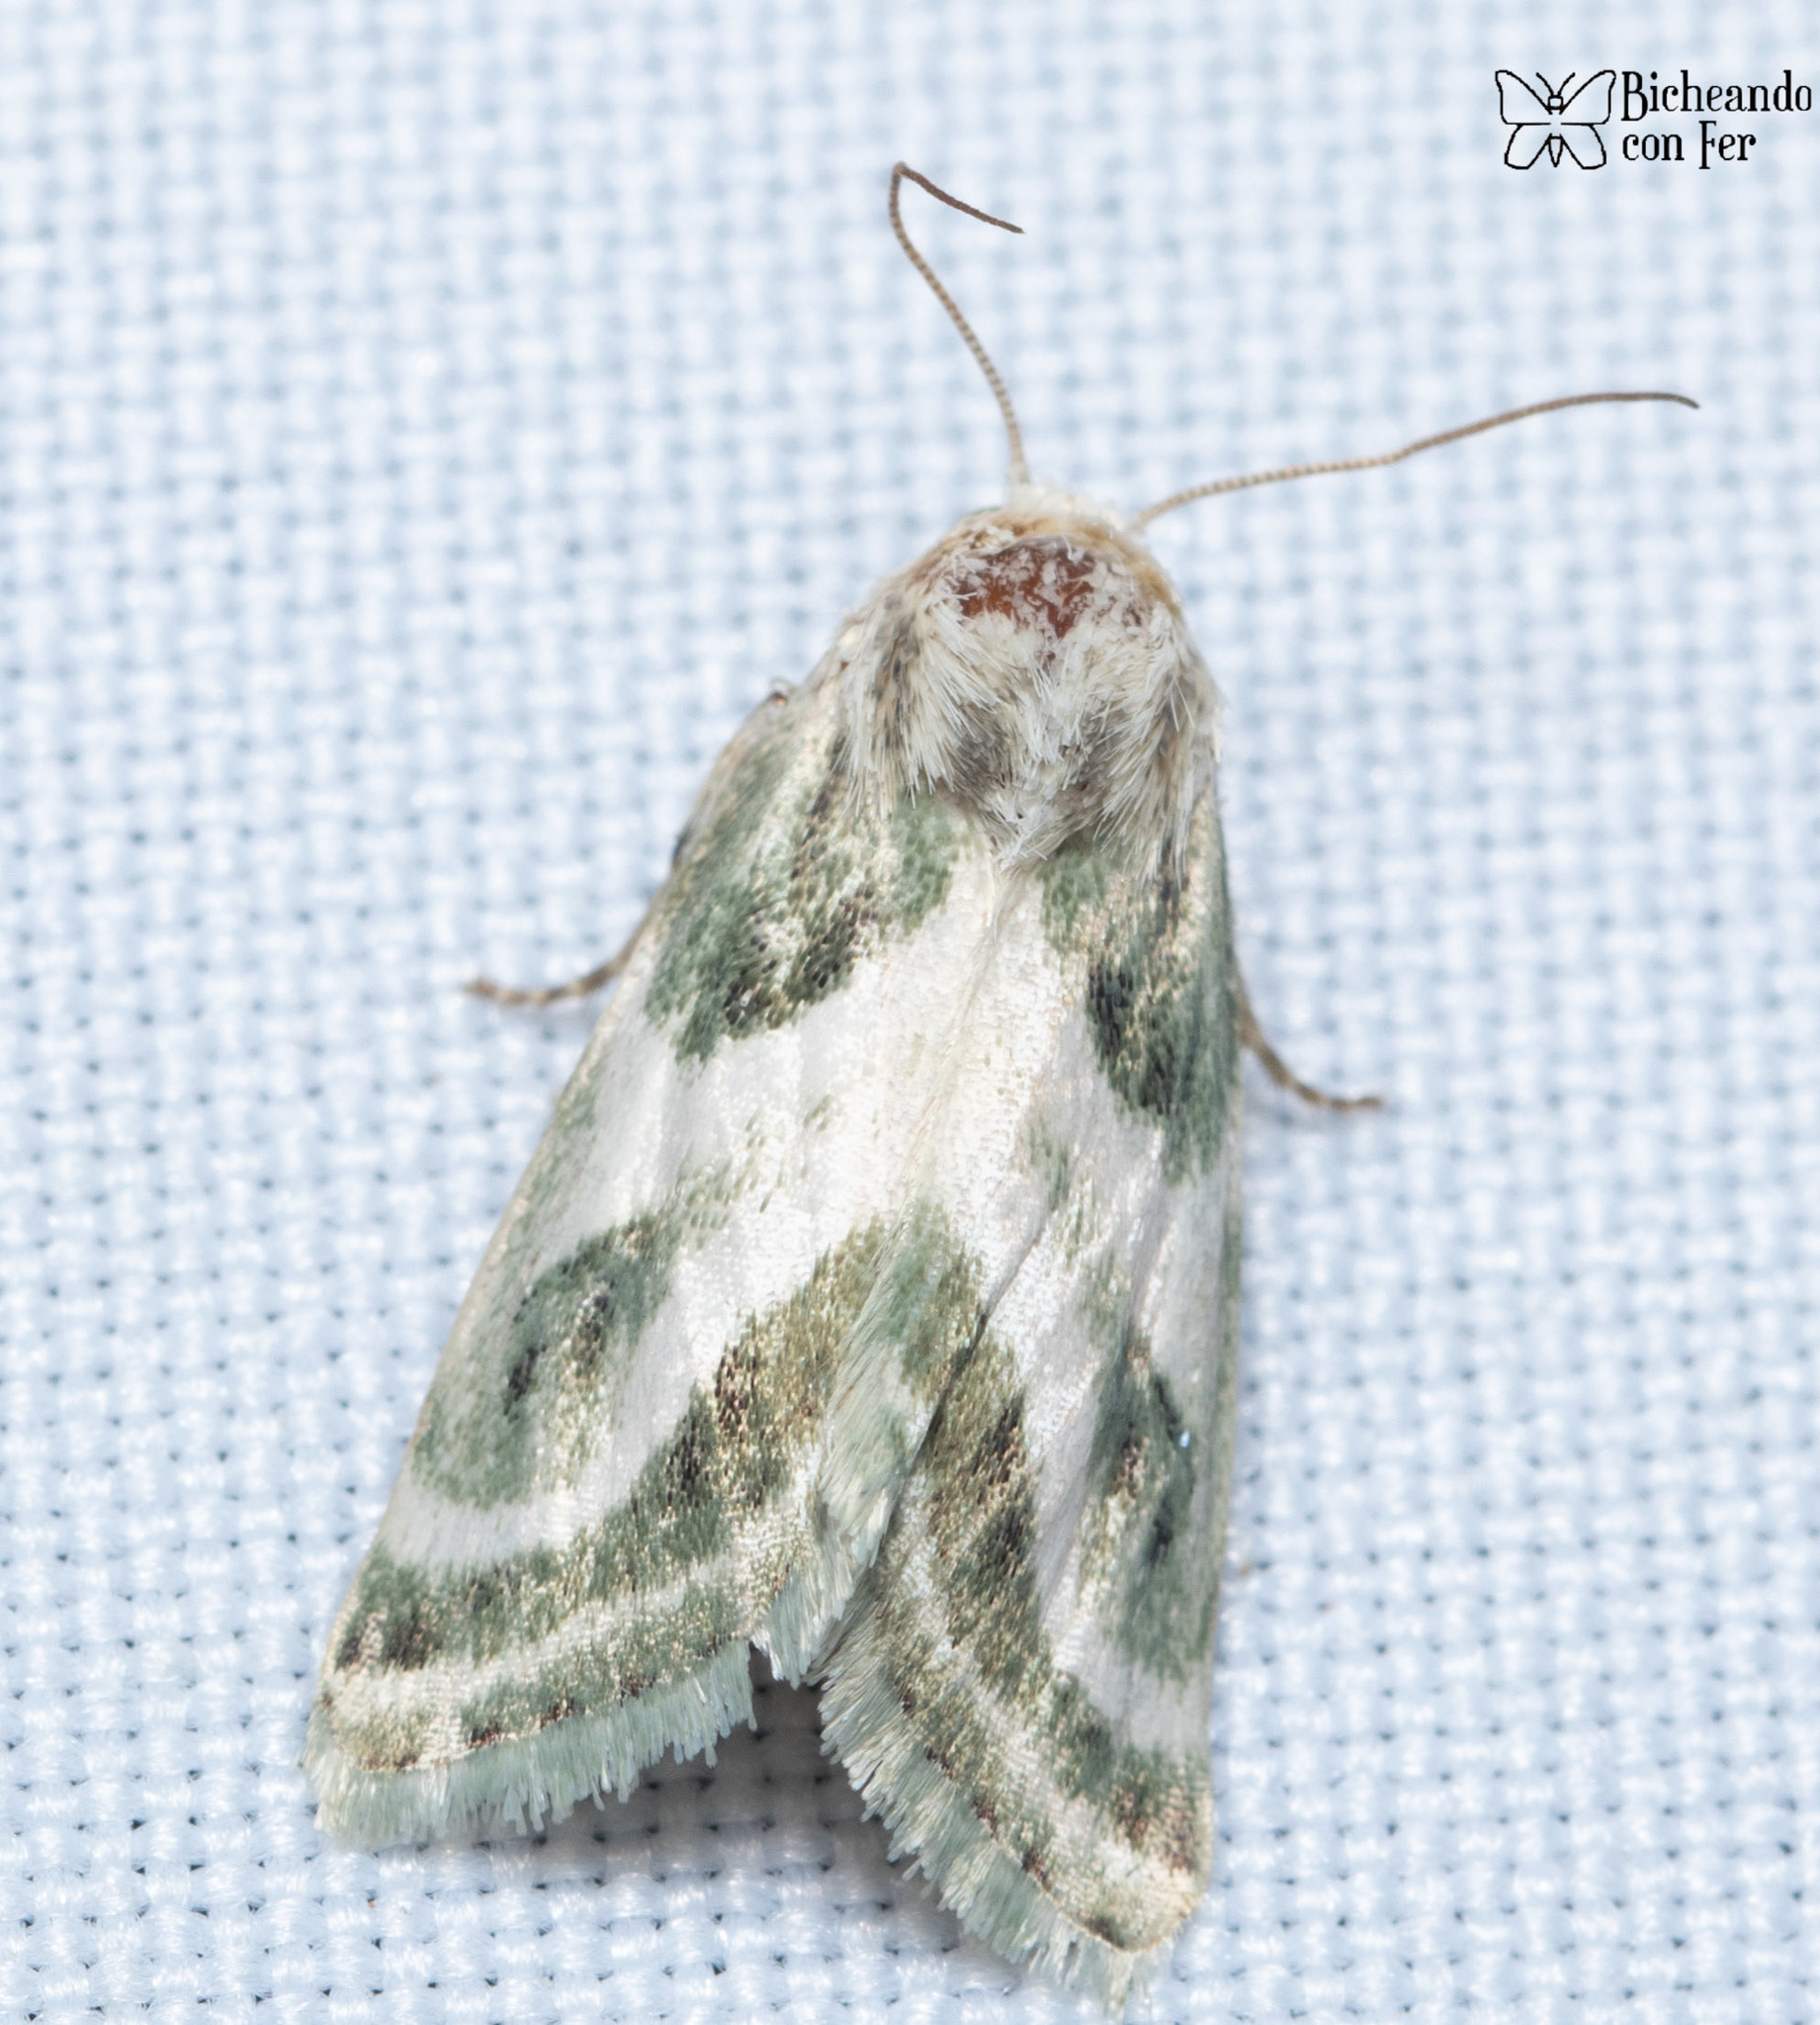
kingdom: Animalia
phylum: Arthropoda
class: Insecta
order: Lepidoptera
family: Noctuidae
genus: Schinia
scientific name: Schinia accessa
